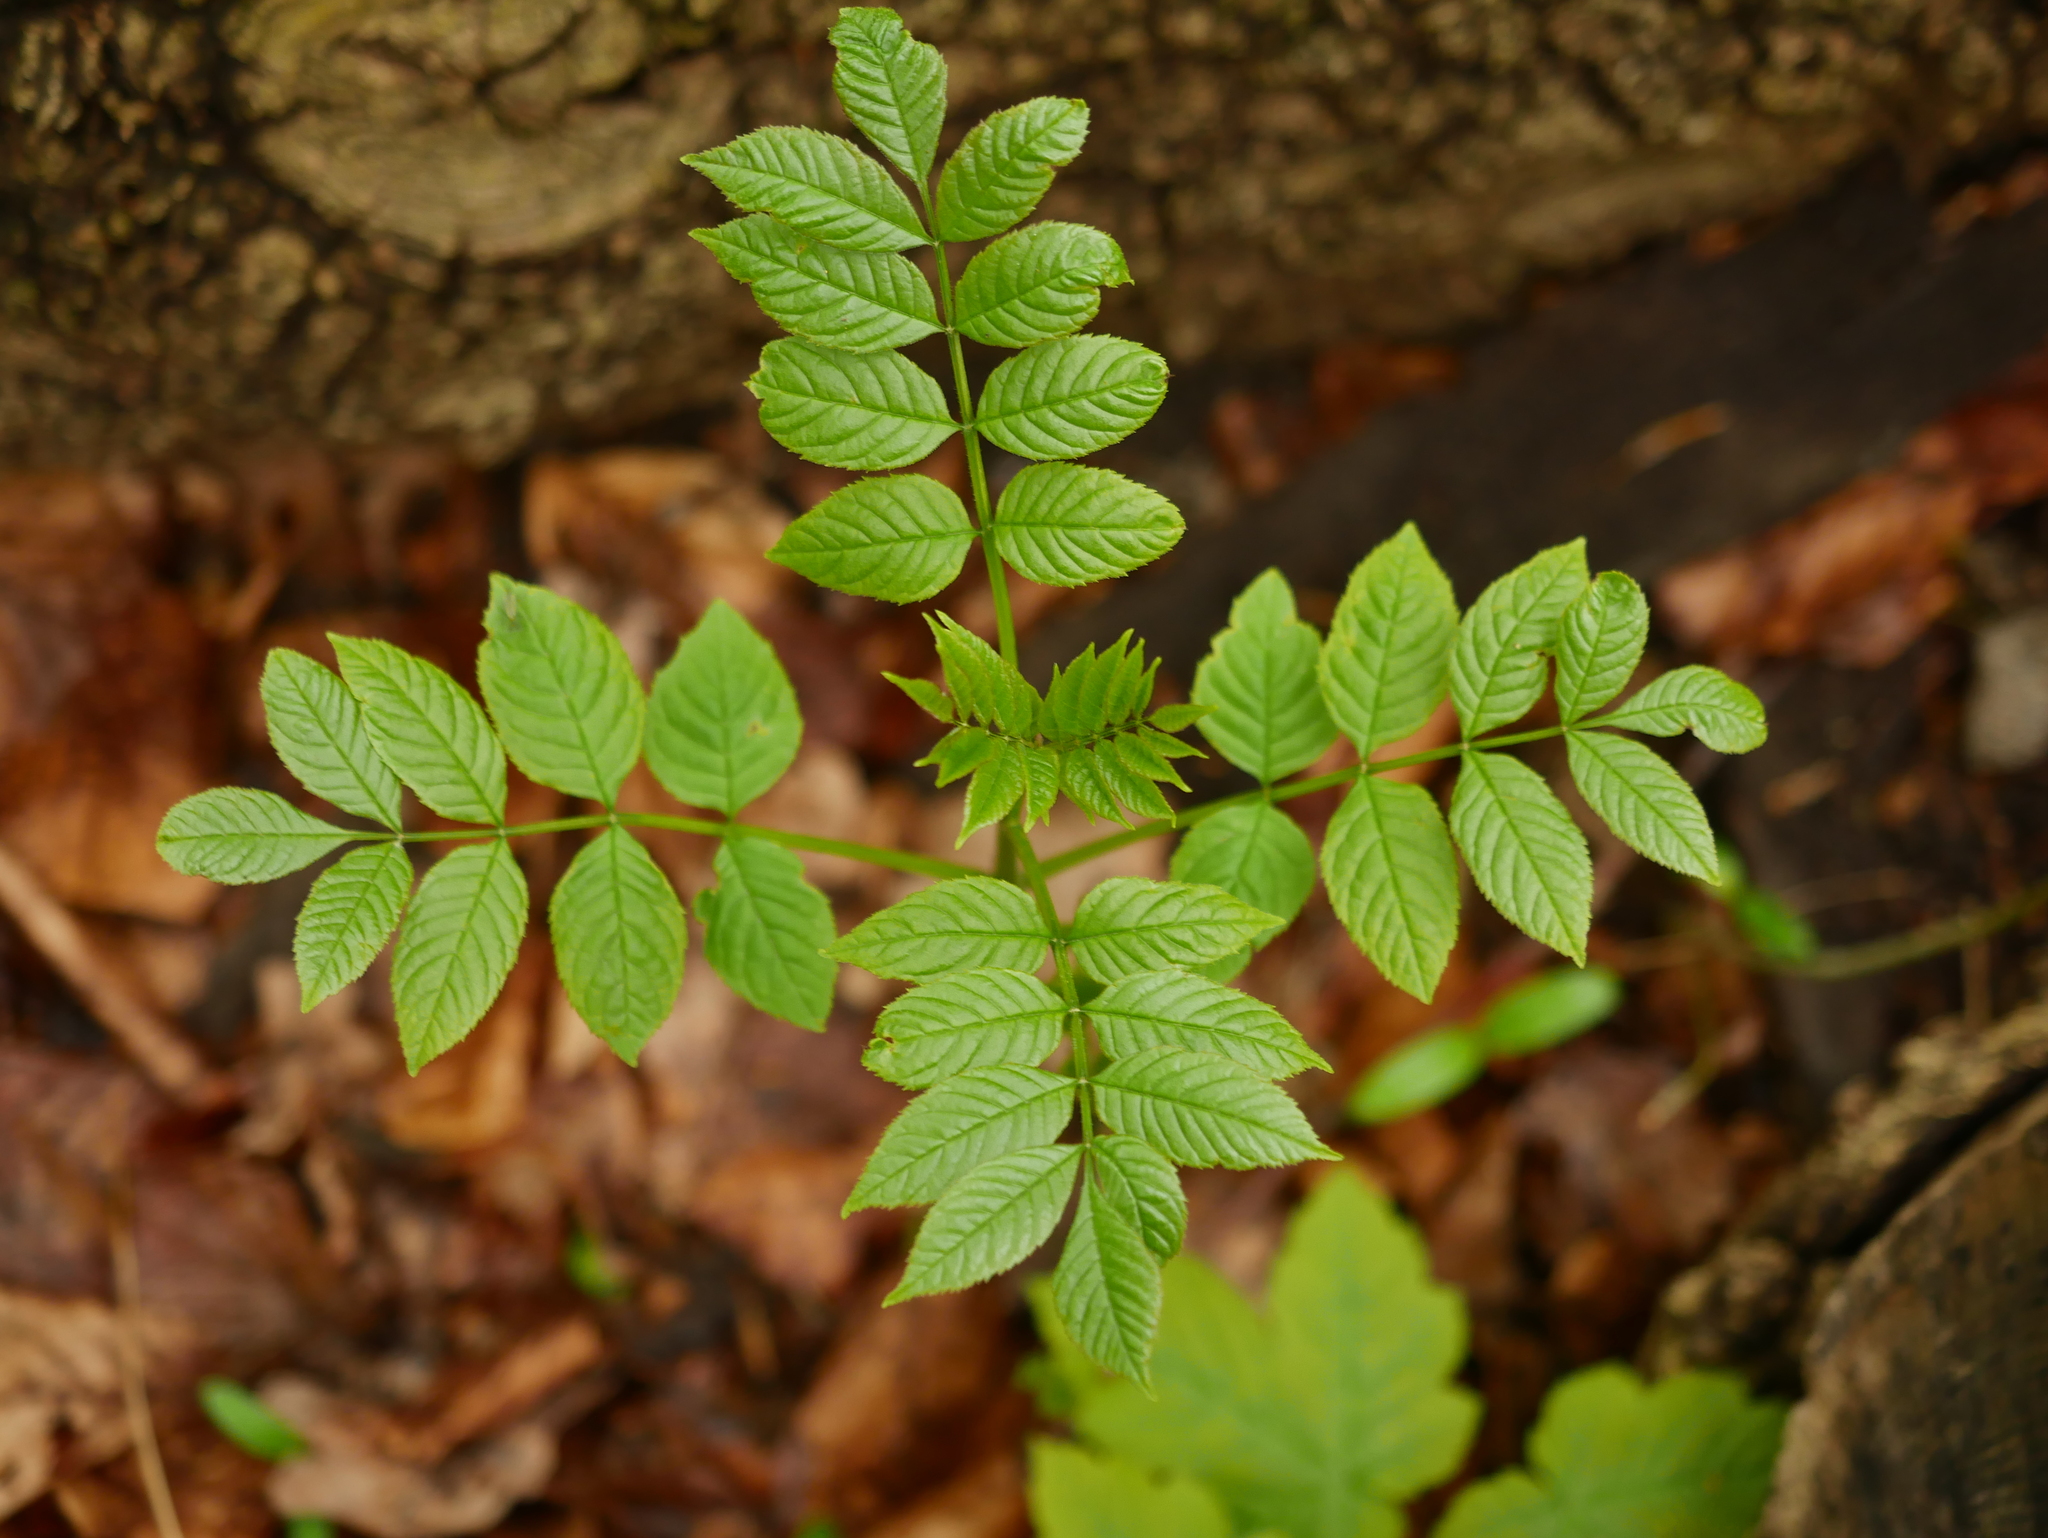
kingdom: Plantae
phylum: Tracheophyta
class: Magnoliopsida
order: Lamiales
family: Oleaceae
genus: Fraxinus
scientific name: Fraxinus excelsior
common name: European ash
